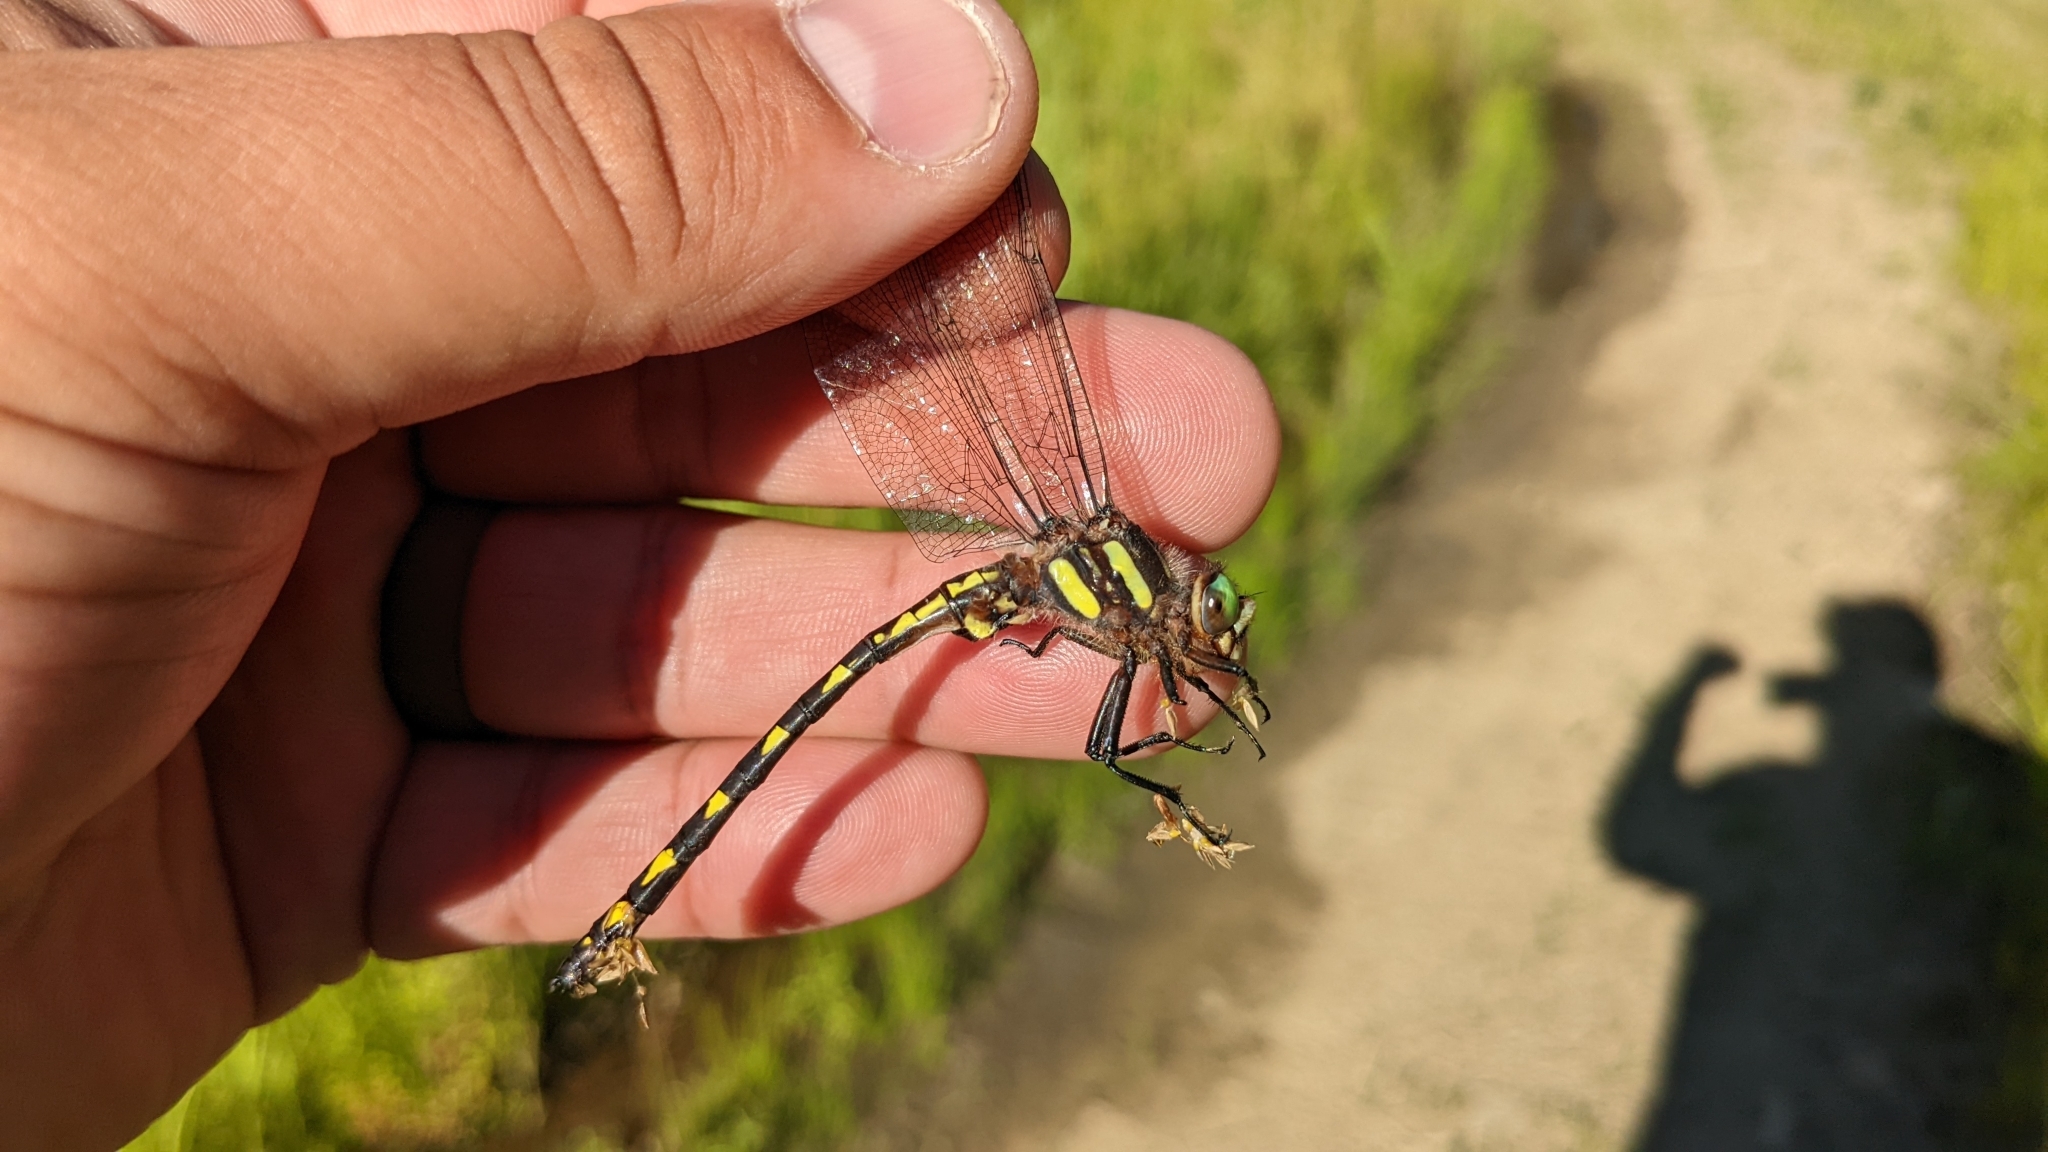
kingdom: Animalia
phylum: Arthropoda
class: Insecta
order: Odonata
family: Cordulegastridae
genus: Cordulegaster
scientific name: Cordulegaster diastatops
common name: Delta-spotted spiketail
